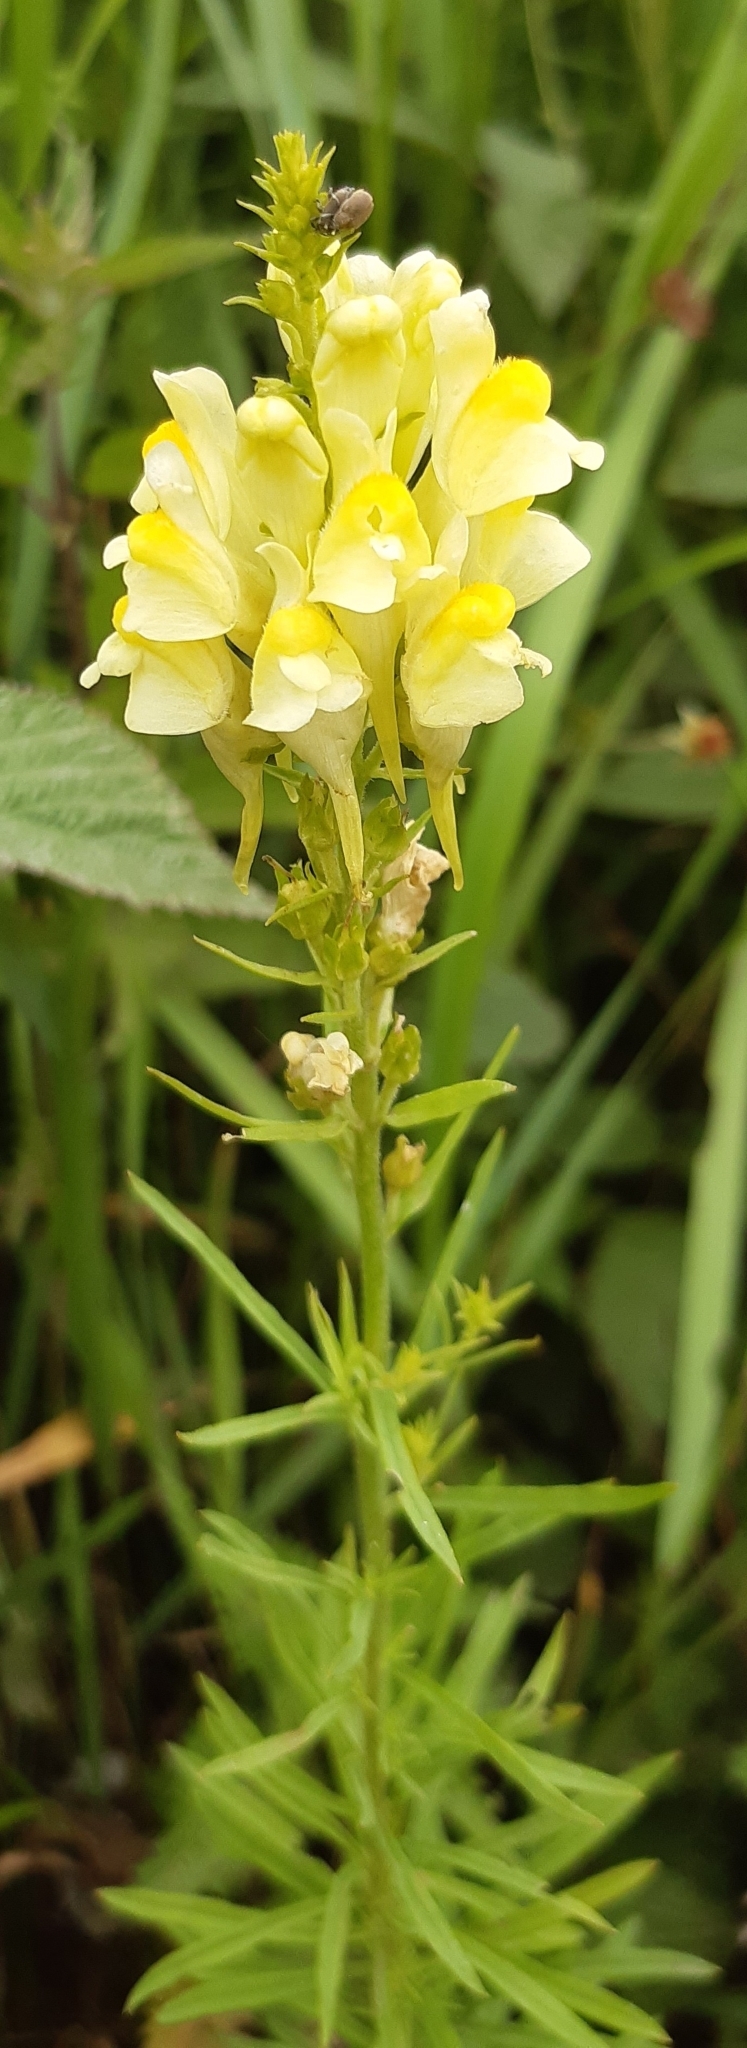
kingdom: Plantae
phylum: Tracheophyta
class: Magnoliopsida
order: Lamiales
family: Plantaginaceae
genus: Linaria
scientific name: Linaria vulgaris
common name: Butter and eggs
